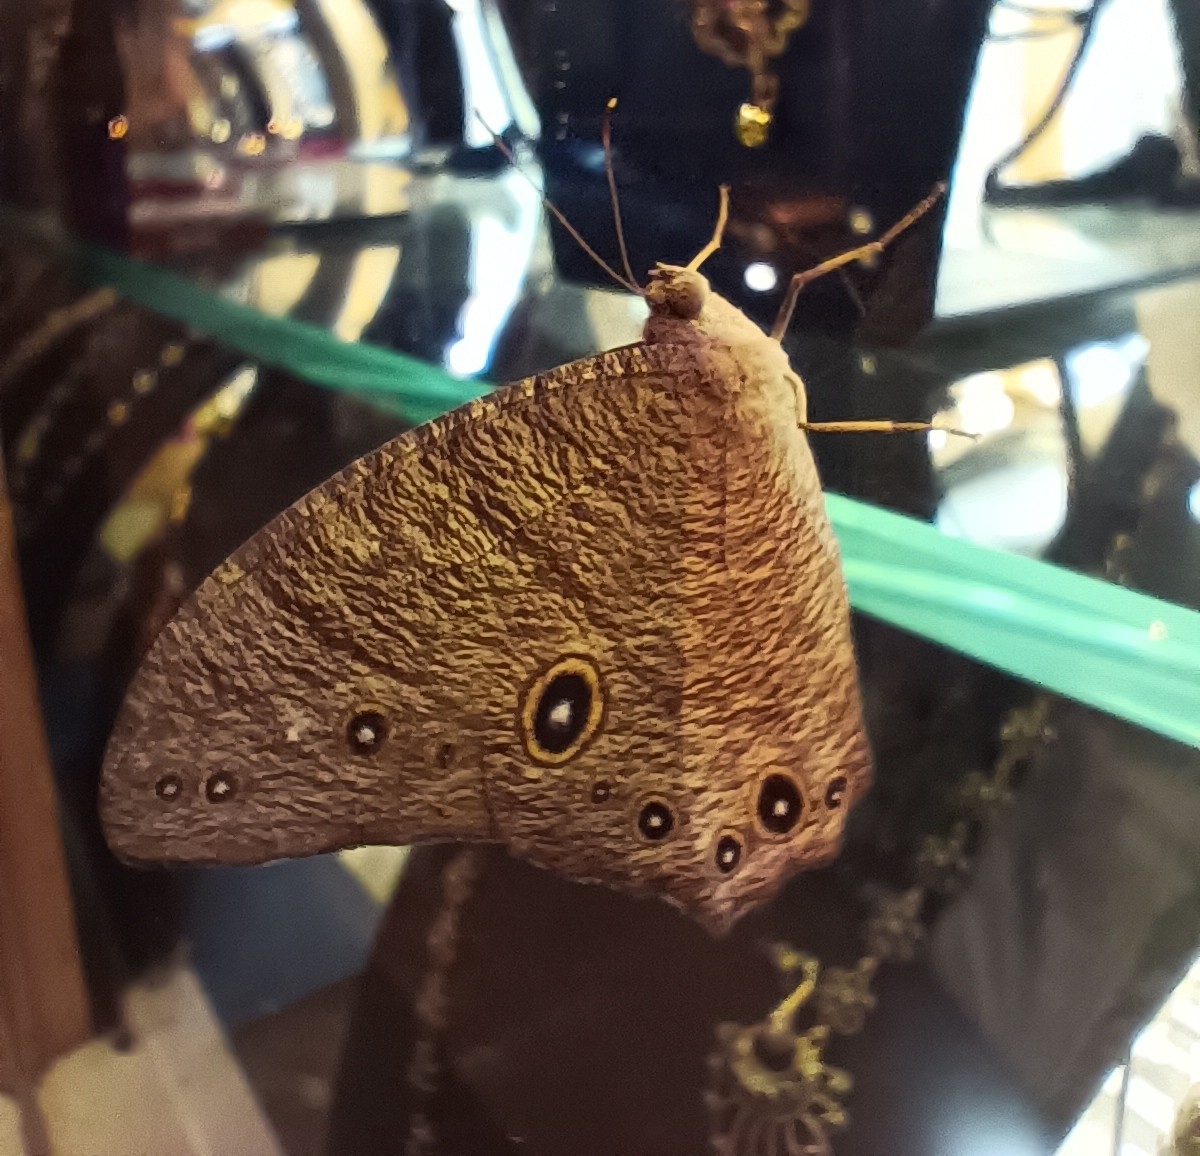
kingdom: Animalia
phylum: Arthropoda
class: Insecta
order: Lepidoptera
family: Nymphalidae
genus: Melanitis
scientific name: Melanitis leda
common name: Twilight brown
